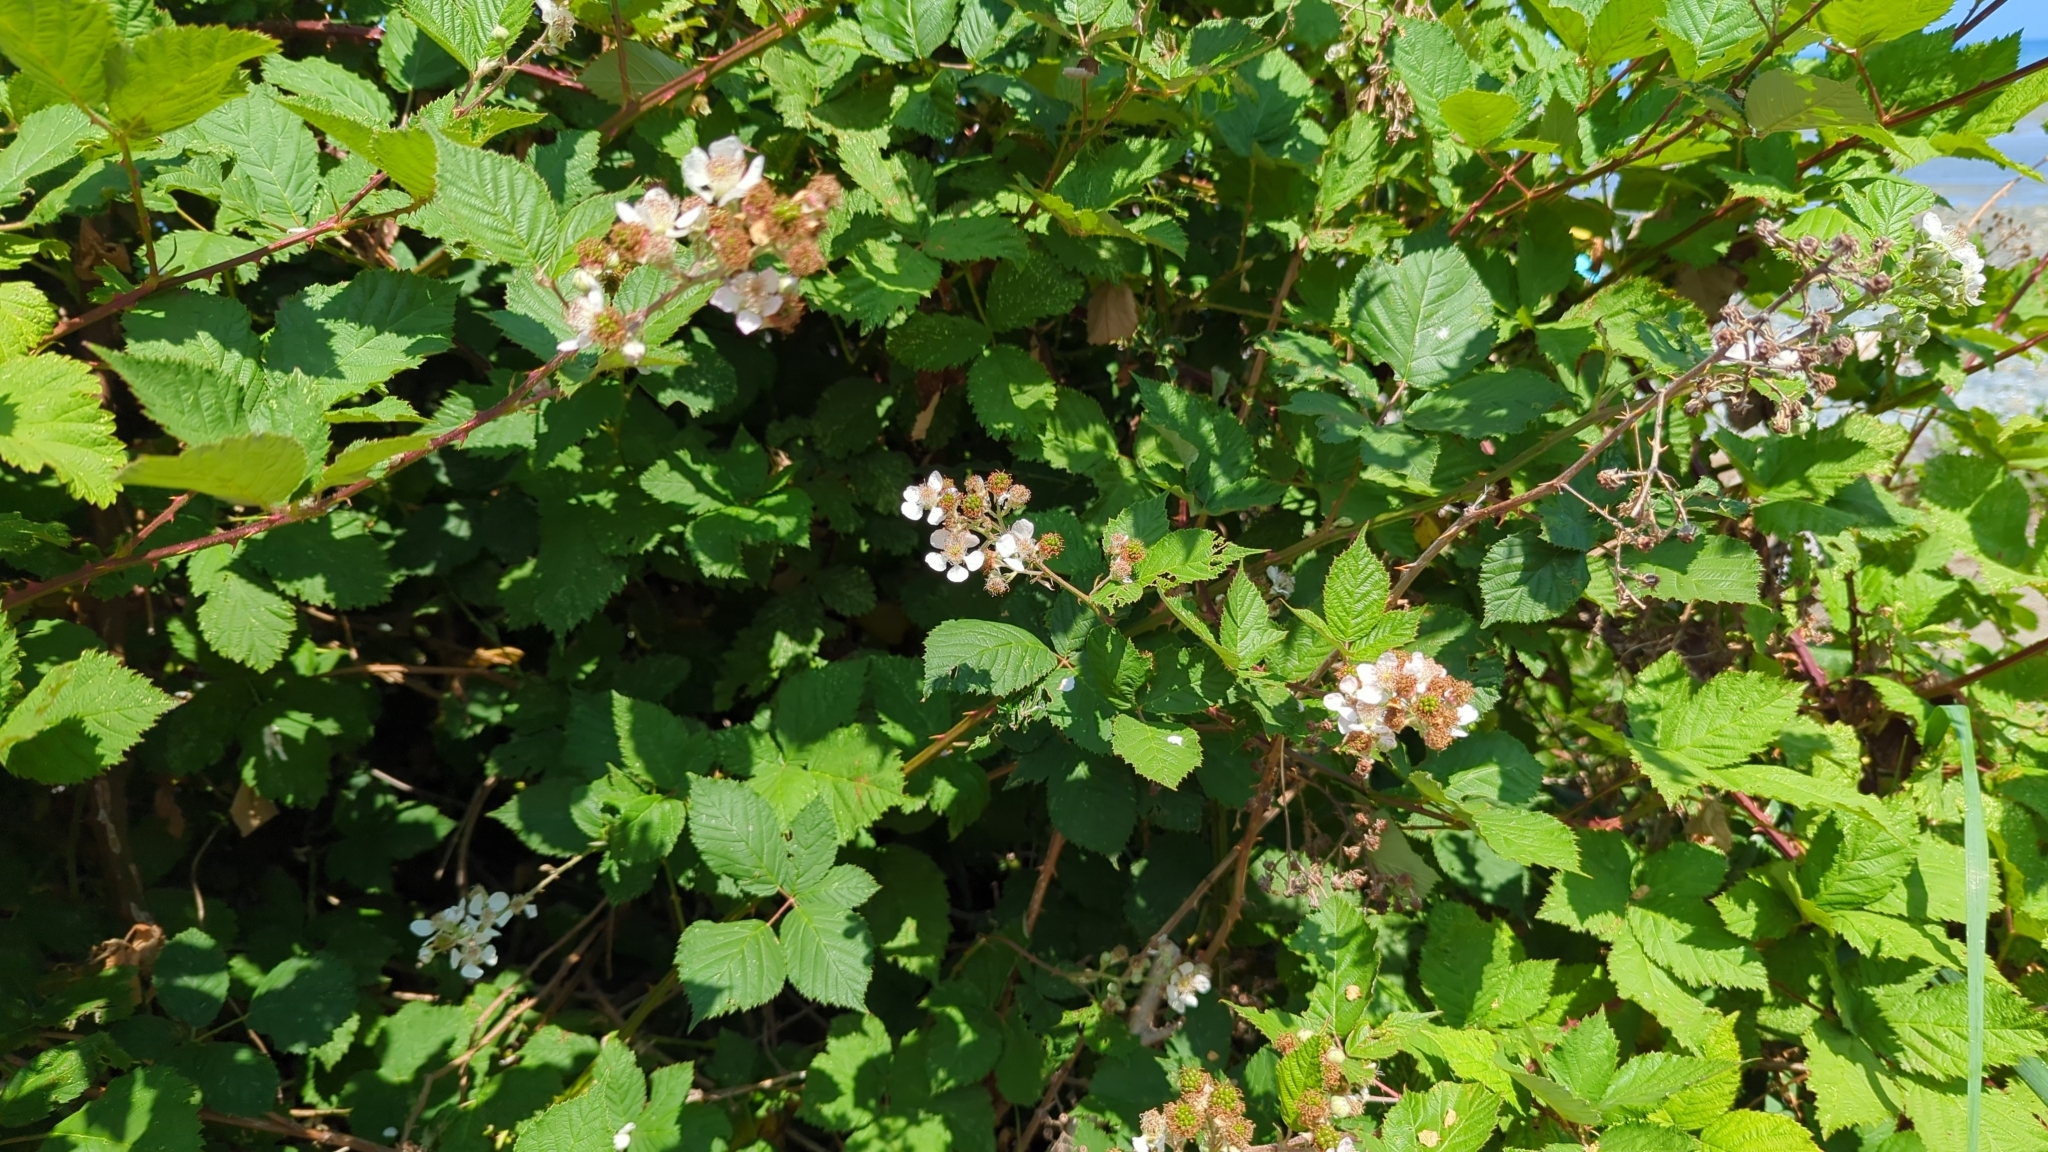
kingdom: Plantae
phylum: Tracheophyta
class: Magnoliopsida
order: Rosales
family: Rosaceae
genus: Rubus
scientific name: Rubus bifrons
